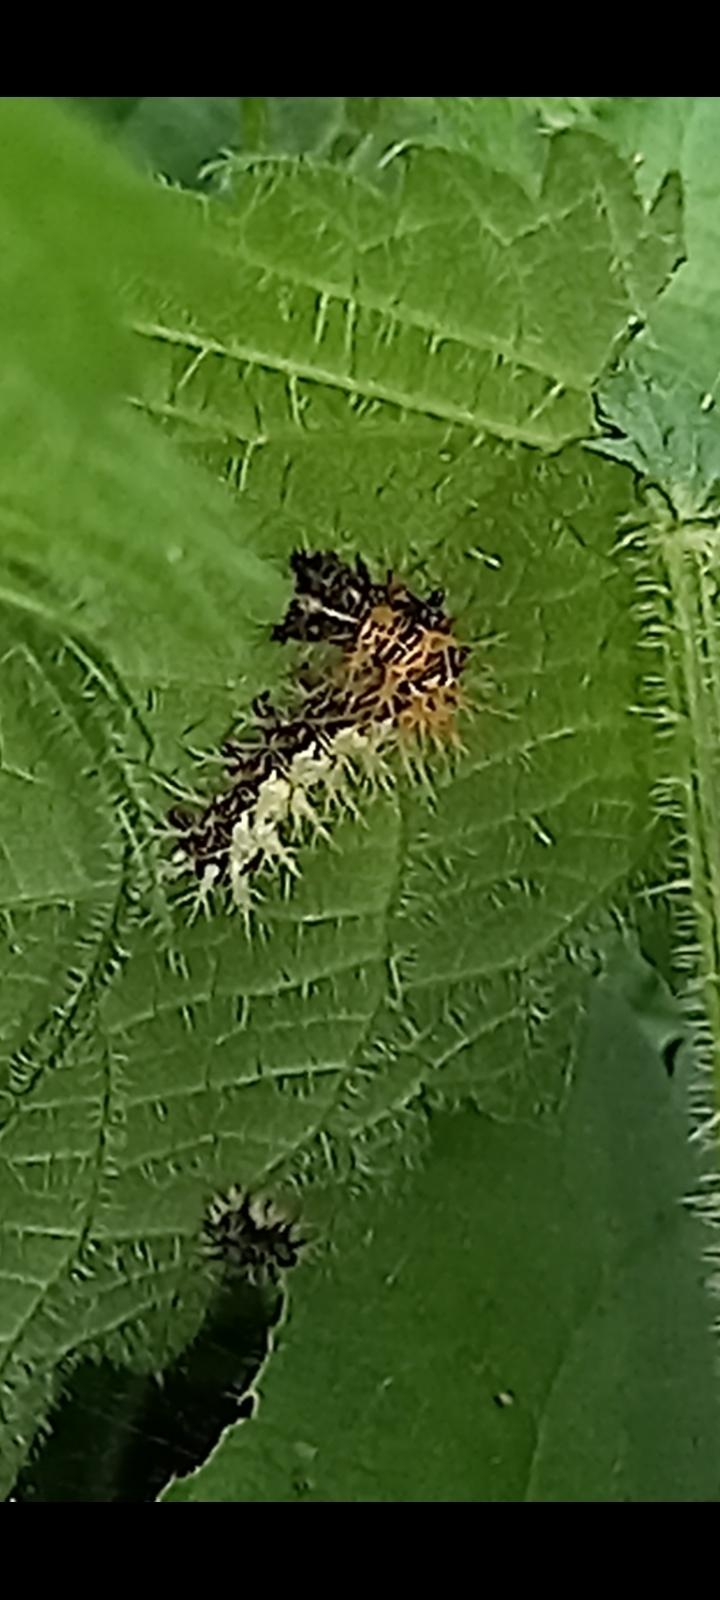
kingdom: Animalia
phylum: Arthropoda
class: Insecta
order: Lepidoptera
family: Nymphalidae
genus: Polygonia
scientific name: Polygonia c-album
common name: Comma
